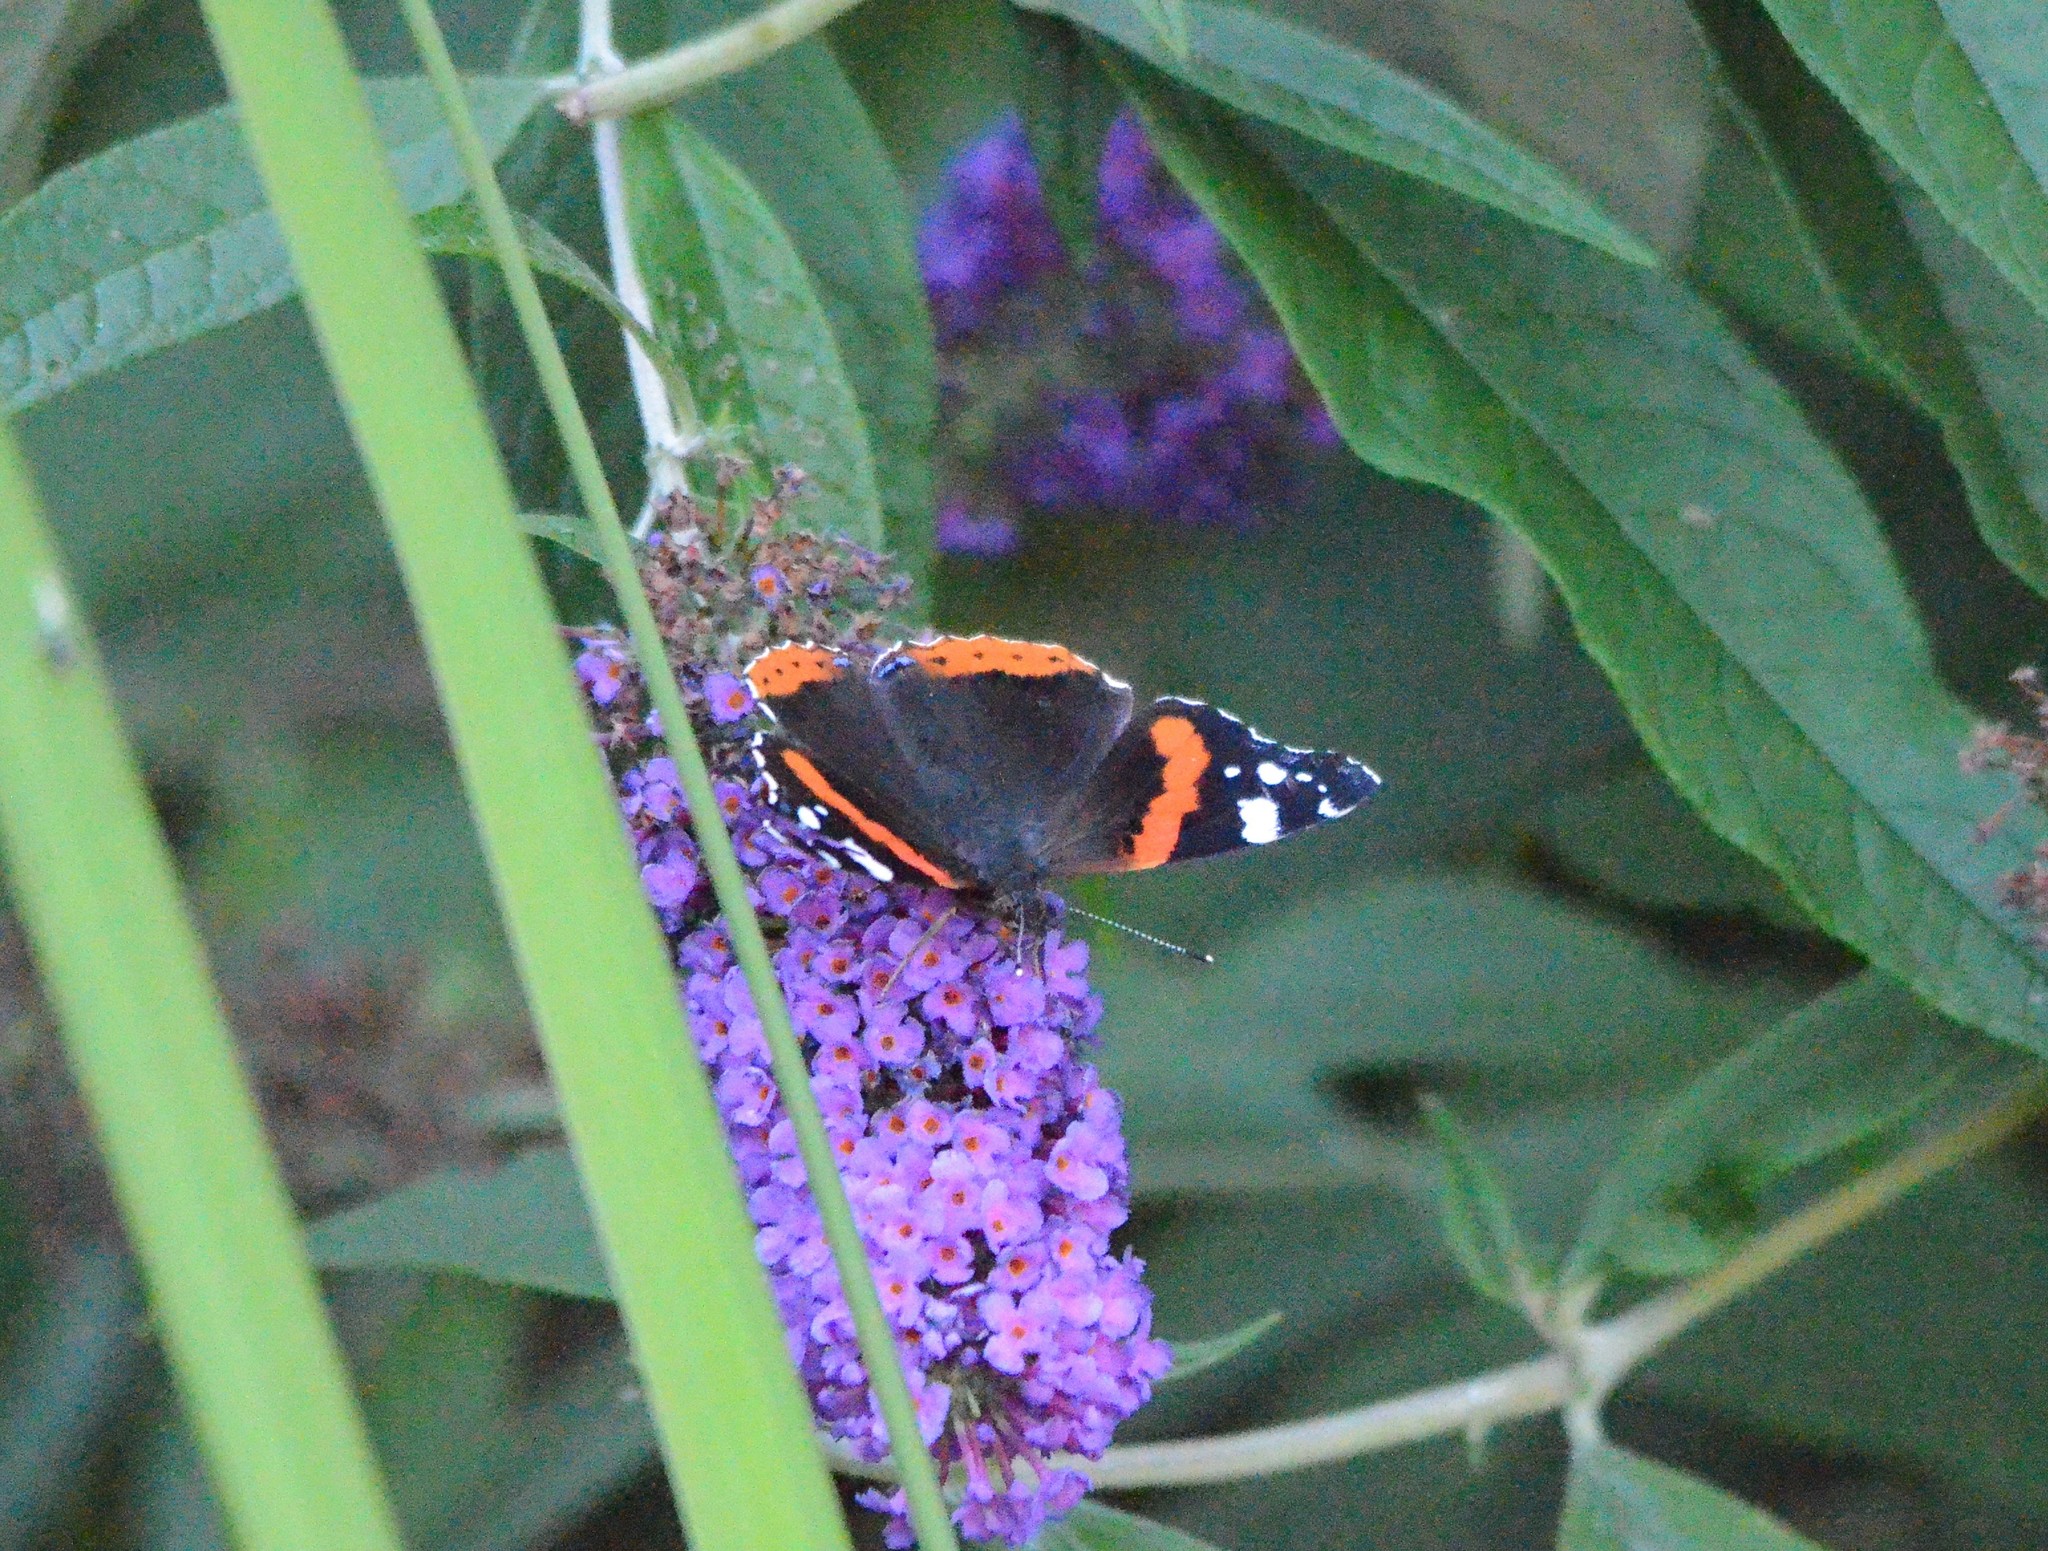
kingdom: Animalia
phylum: Arthropoda
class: Insecta
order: Lepidoptera
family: Nymphalidae
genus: Vanessa
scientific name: Vanessa atalanta
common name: Red admiral
